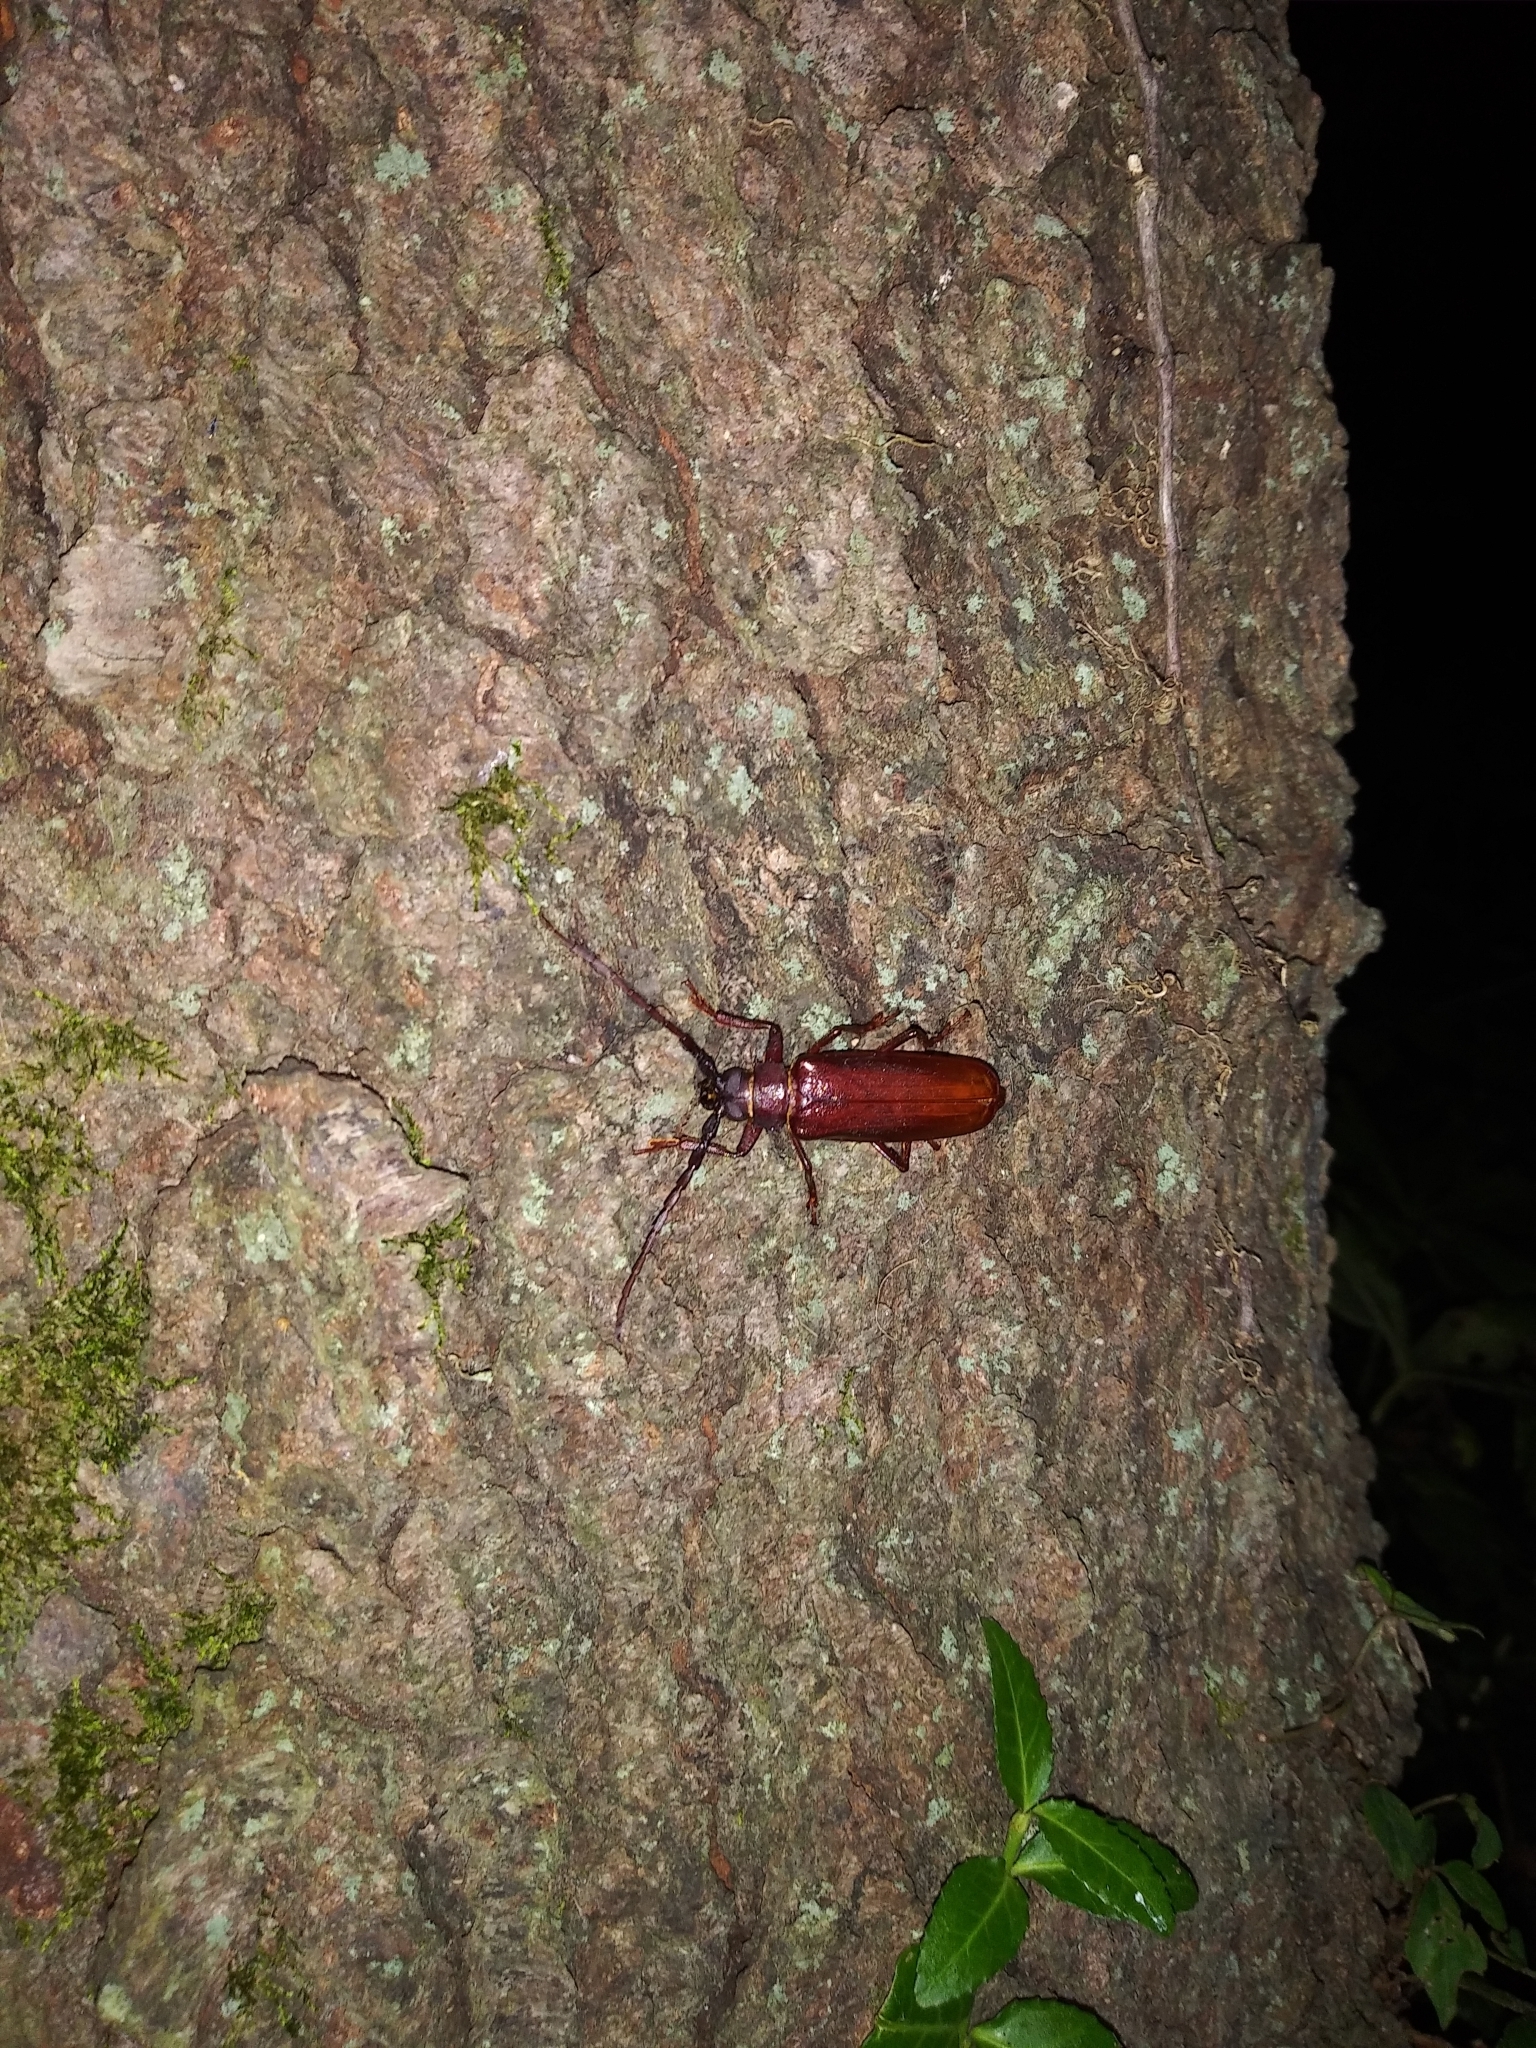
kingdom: Animalia
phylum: Arthropoda
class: Insecta
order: Coleoptera
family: Cerambycidae
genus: Orthosoma
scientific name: Orthosoma brunneum
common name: Brown prionid beetle
